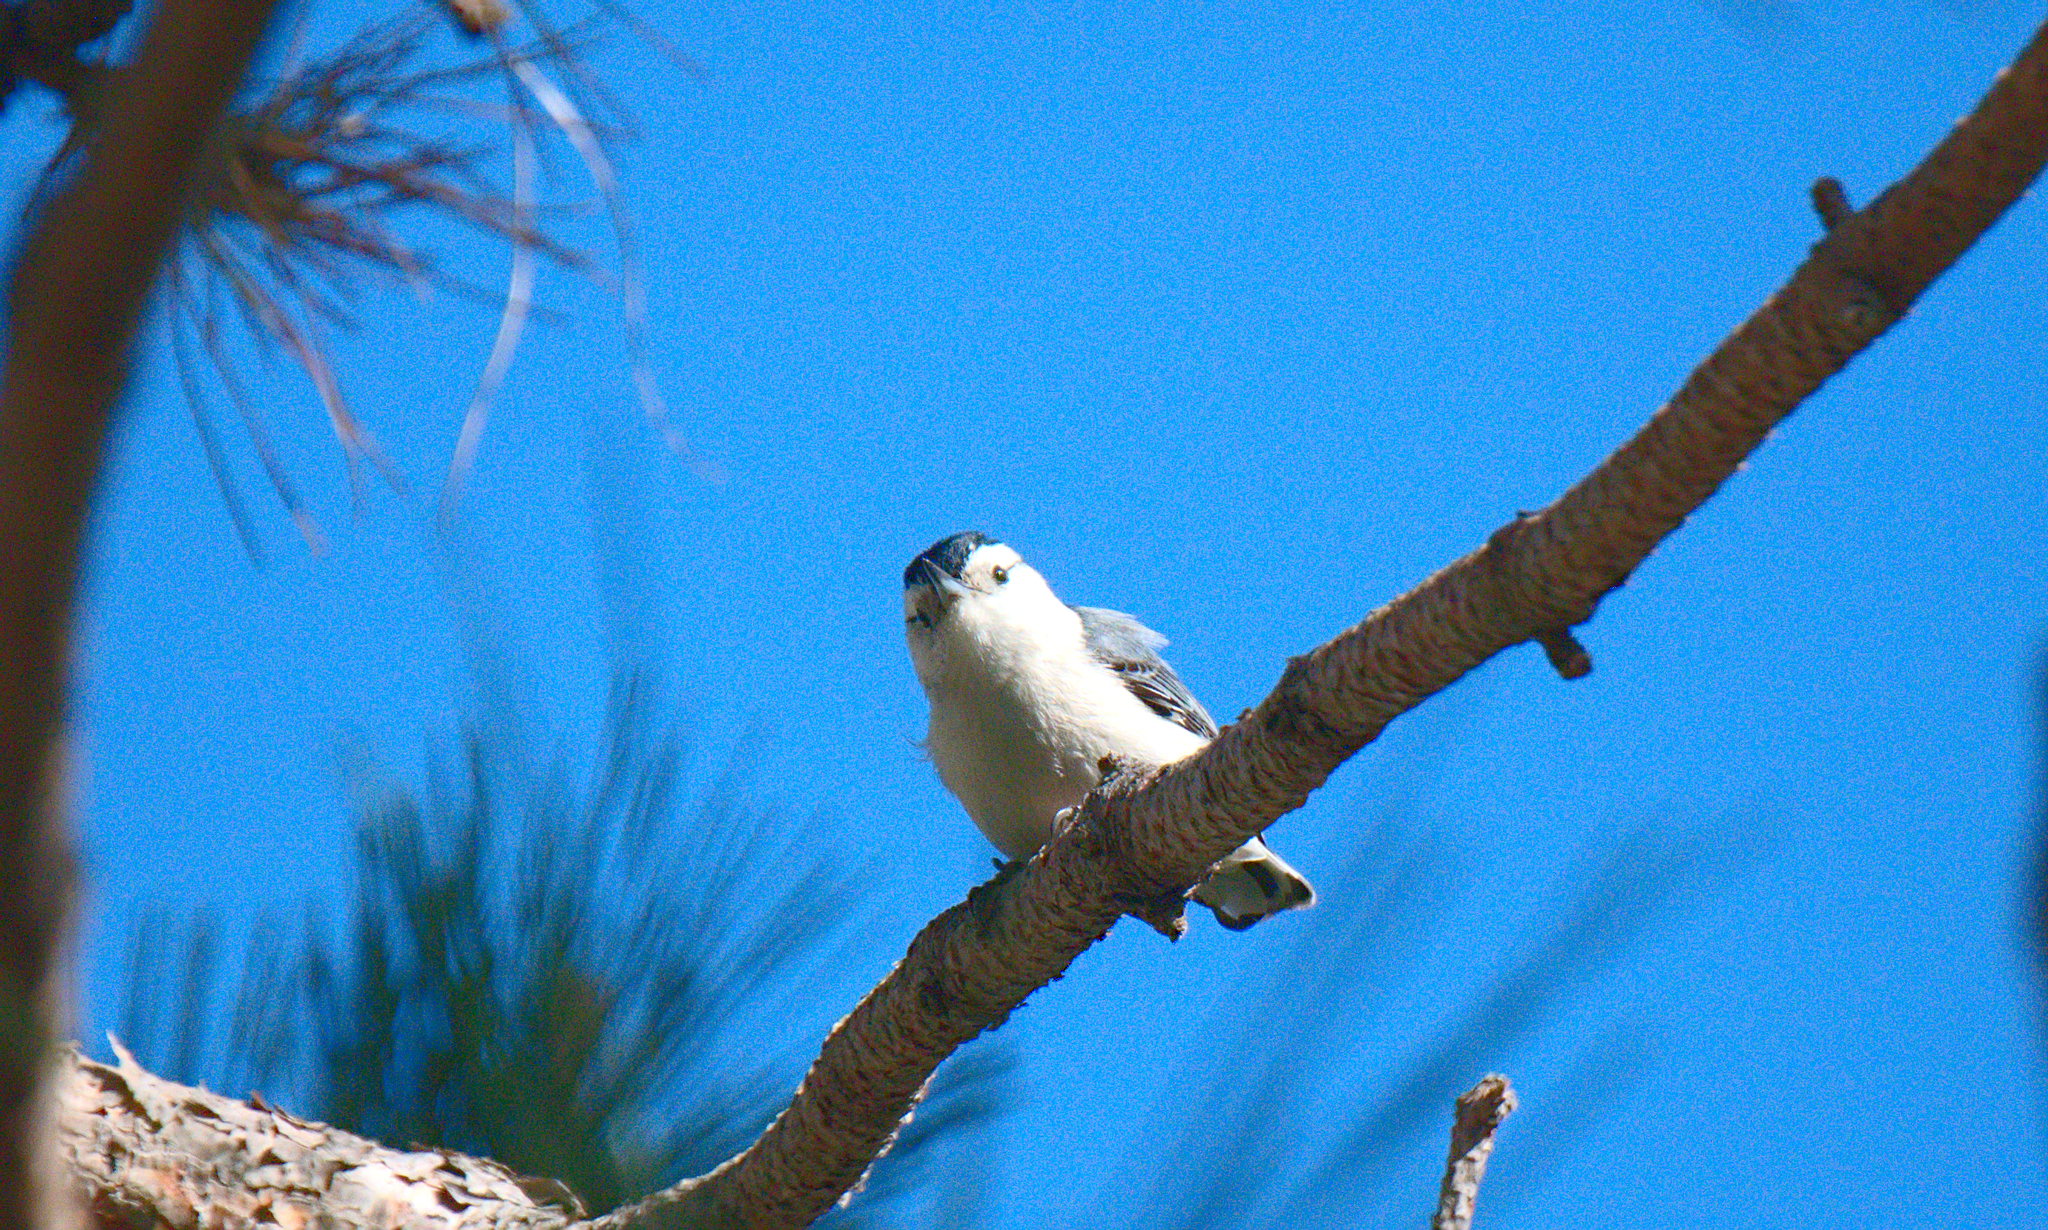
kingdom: Animalia
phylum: Chordata
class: Aves
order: Passeriformes
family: Sittidae
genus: Sitta
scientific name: Sitta carolinensis
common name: White-breasted nuthatch
